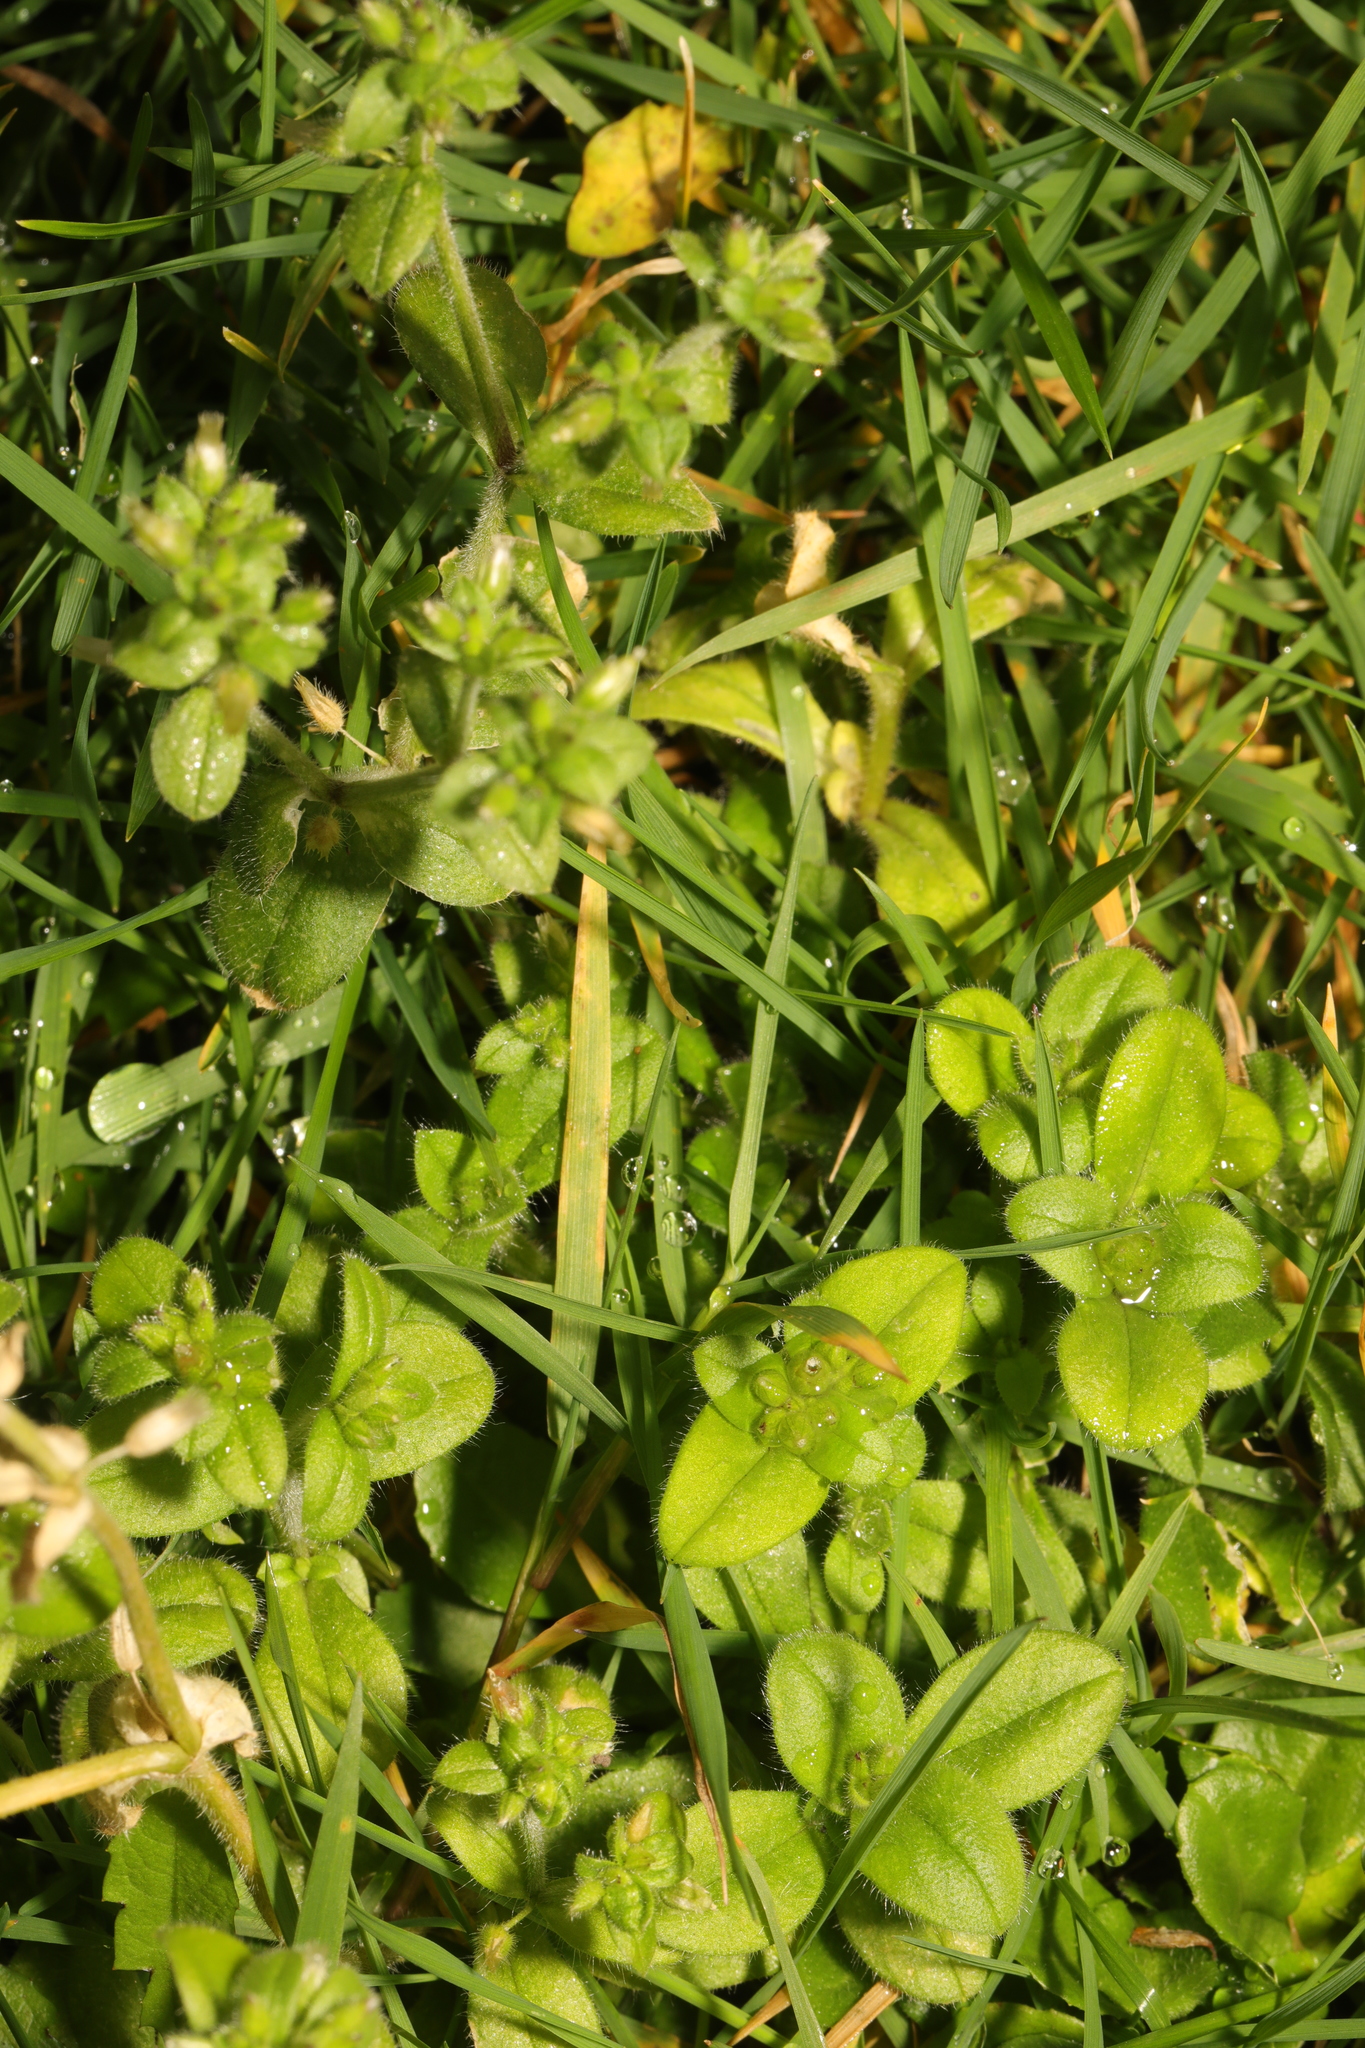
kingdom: Plantae
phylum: Tracheophyta
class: Magnoliopsida
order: Caryophyllales
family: Caryophyllaceae
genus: Cerastium
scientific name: Cerastium glomeratum
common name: Sticky chickweed
